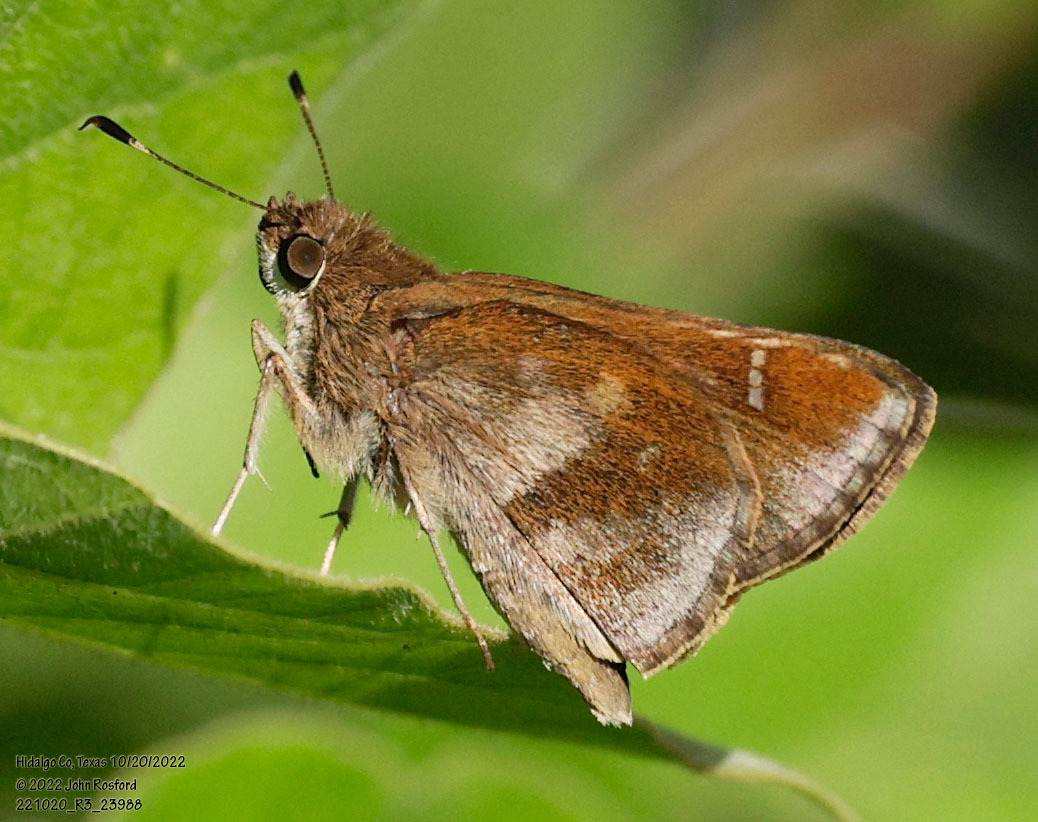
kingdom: Animalia
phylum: Arthropoda
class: Insecta
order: Lepidoptera
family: Hesperiidae
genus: Lerema
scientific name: Lerema accius
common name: Clouded skipper
